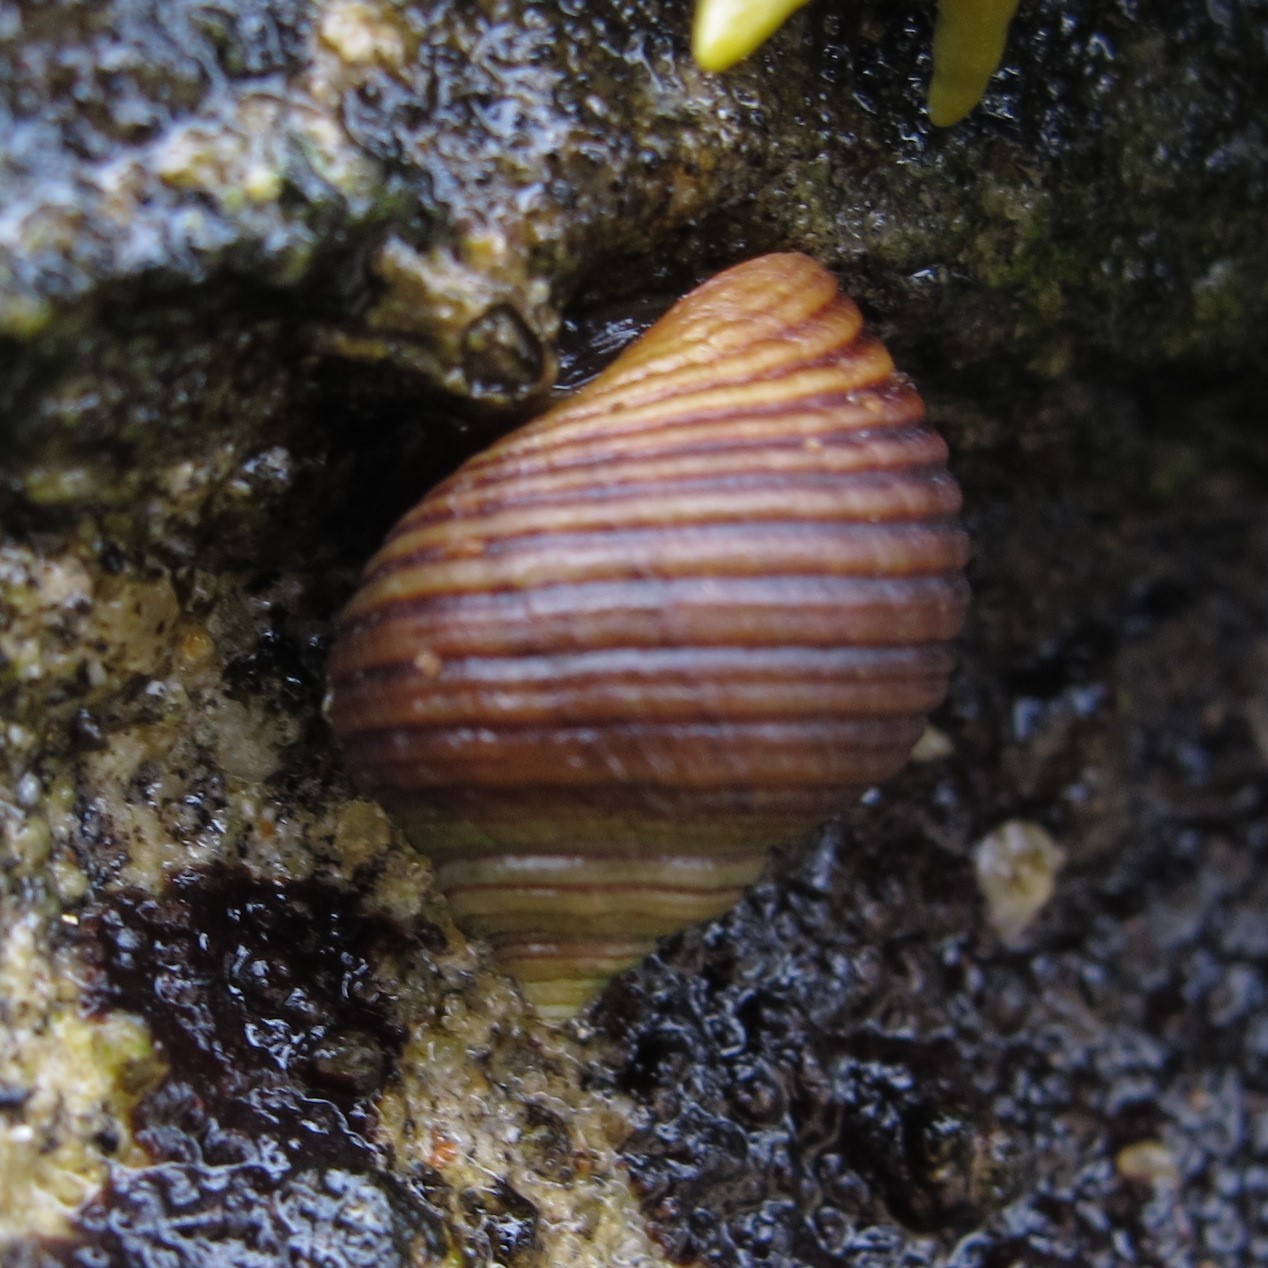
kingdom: Animalia
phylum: Mollusca
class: Gastropoda
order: Littorinimorpha
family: Littorinidae
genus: Littorina
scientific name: Littorina saxatilis
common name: Black-lined periwinkle
